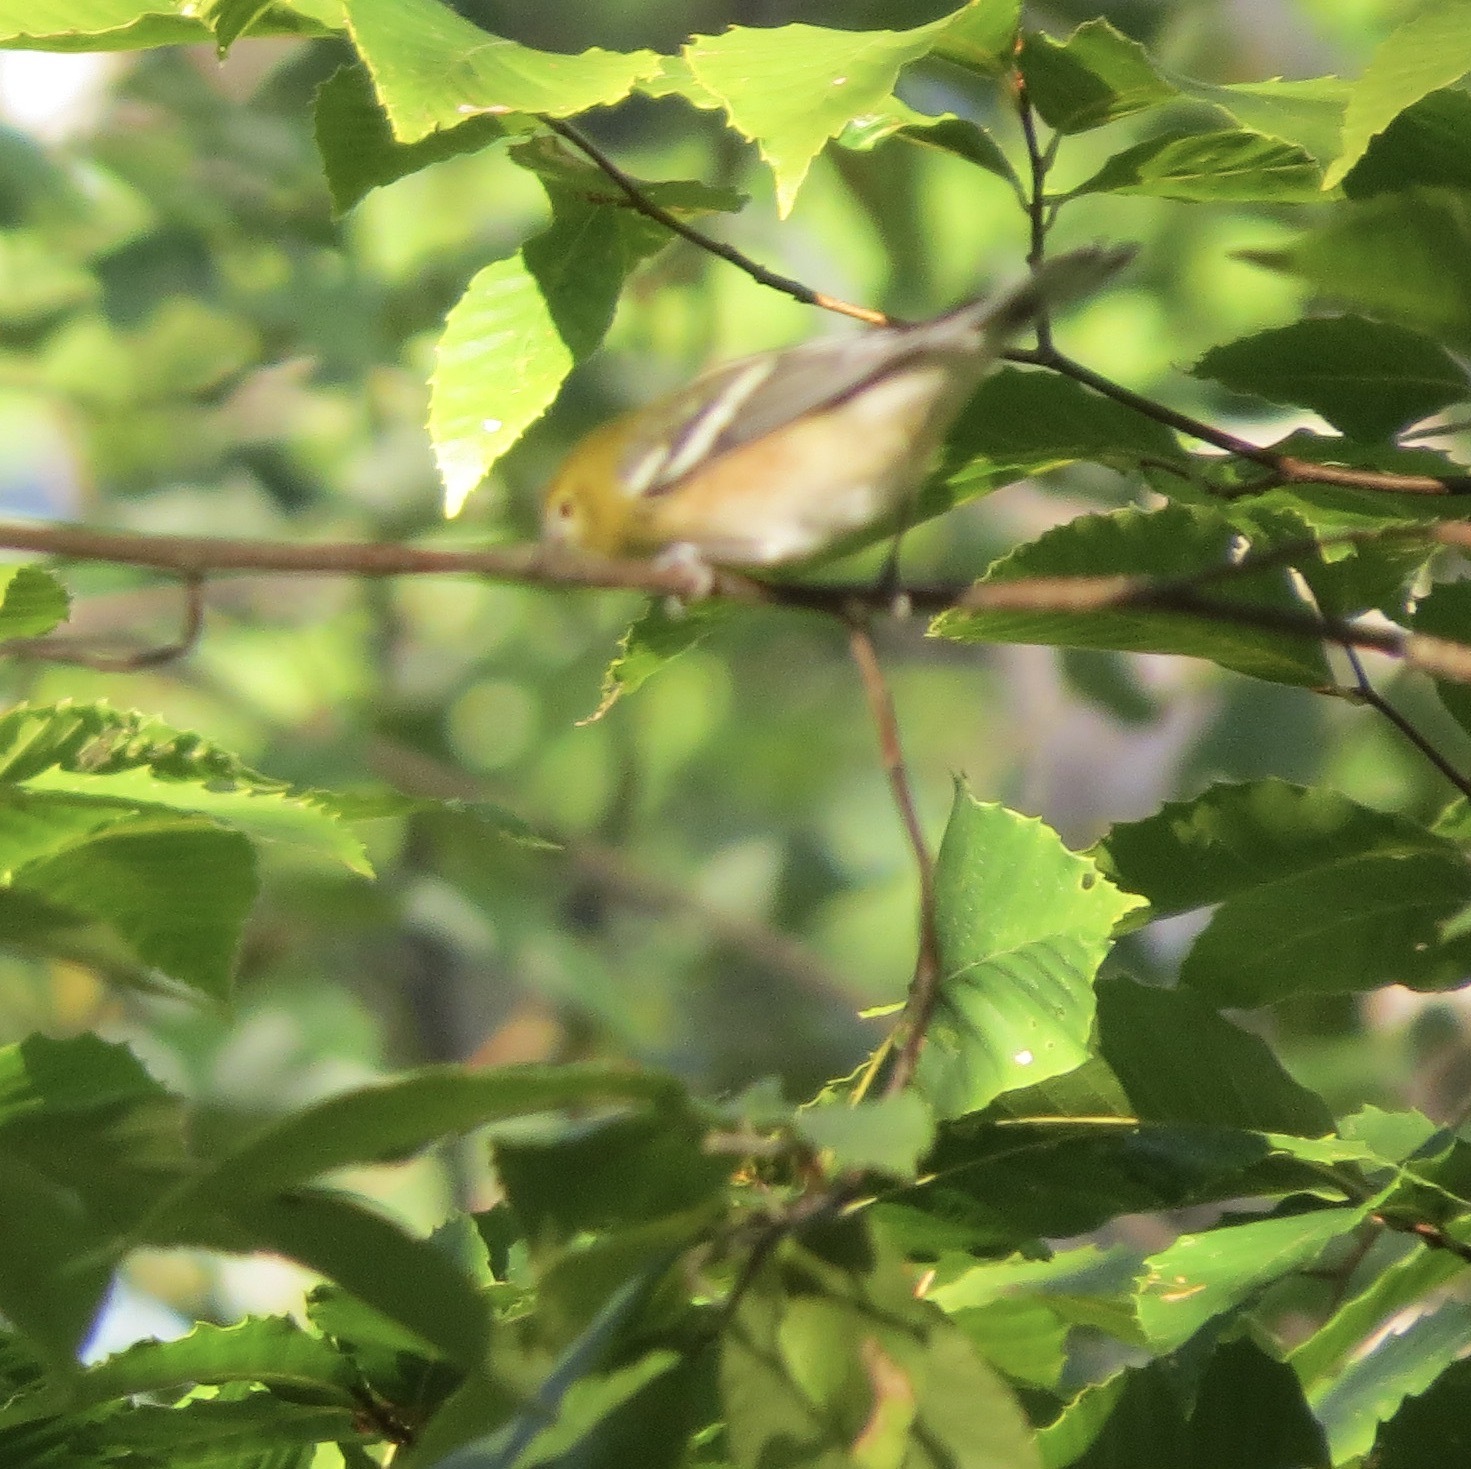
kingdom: Animalia
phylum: Chordata
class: Aves
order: Passeriformes
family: Parulidae
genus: Setophaga
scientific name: Setophaga castanea
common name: Bay-breasted warbler
